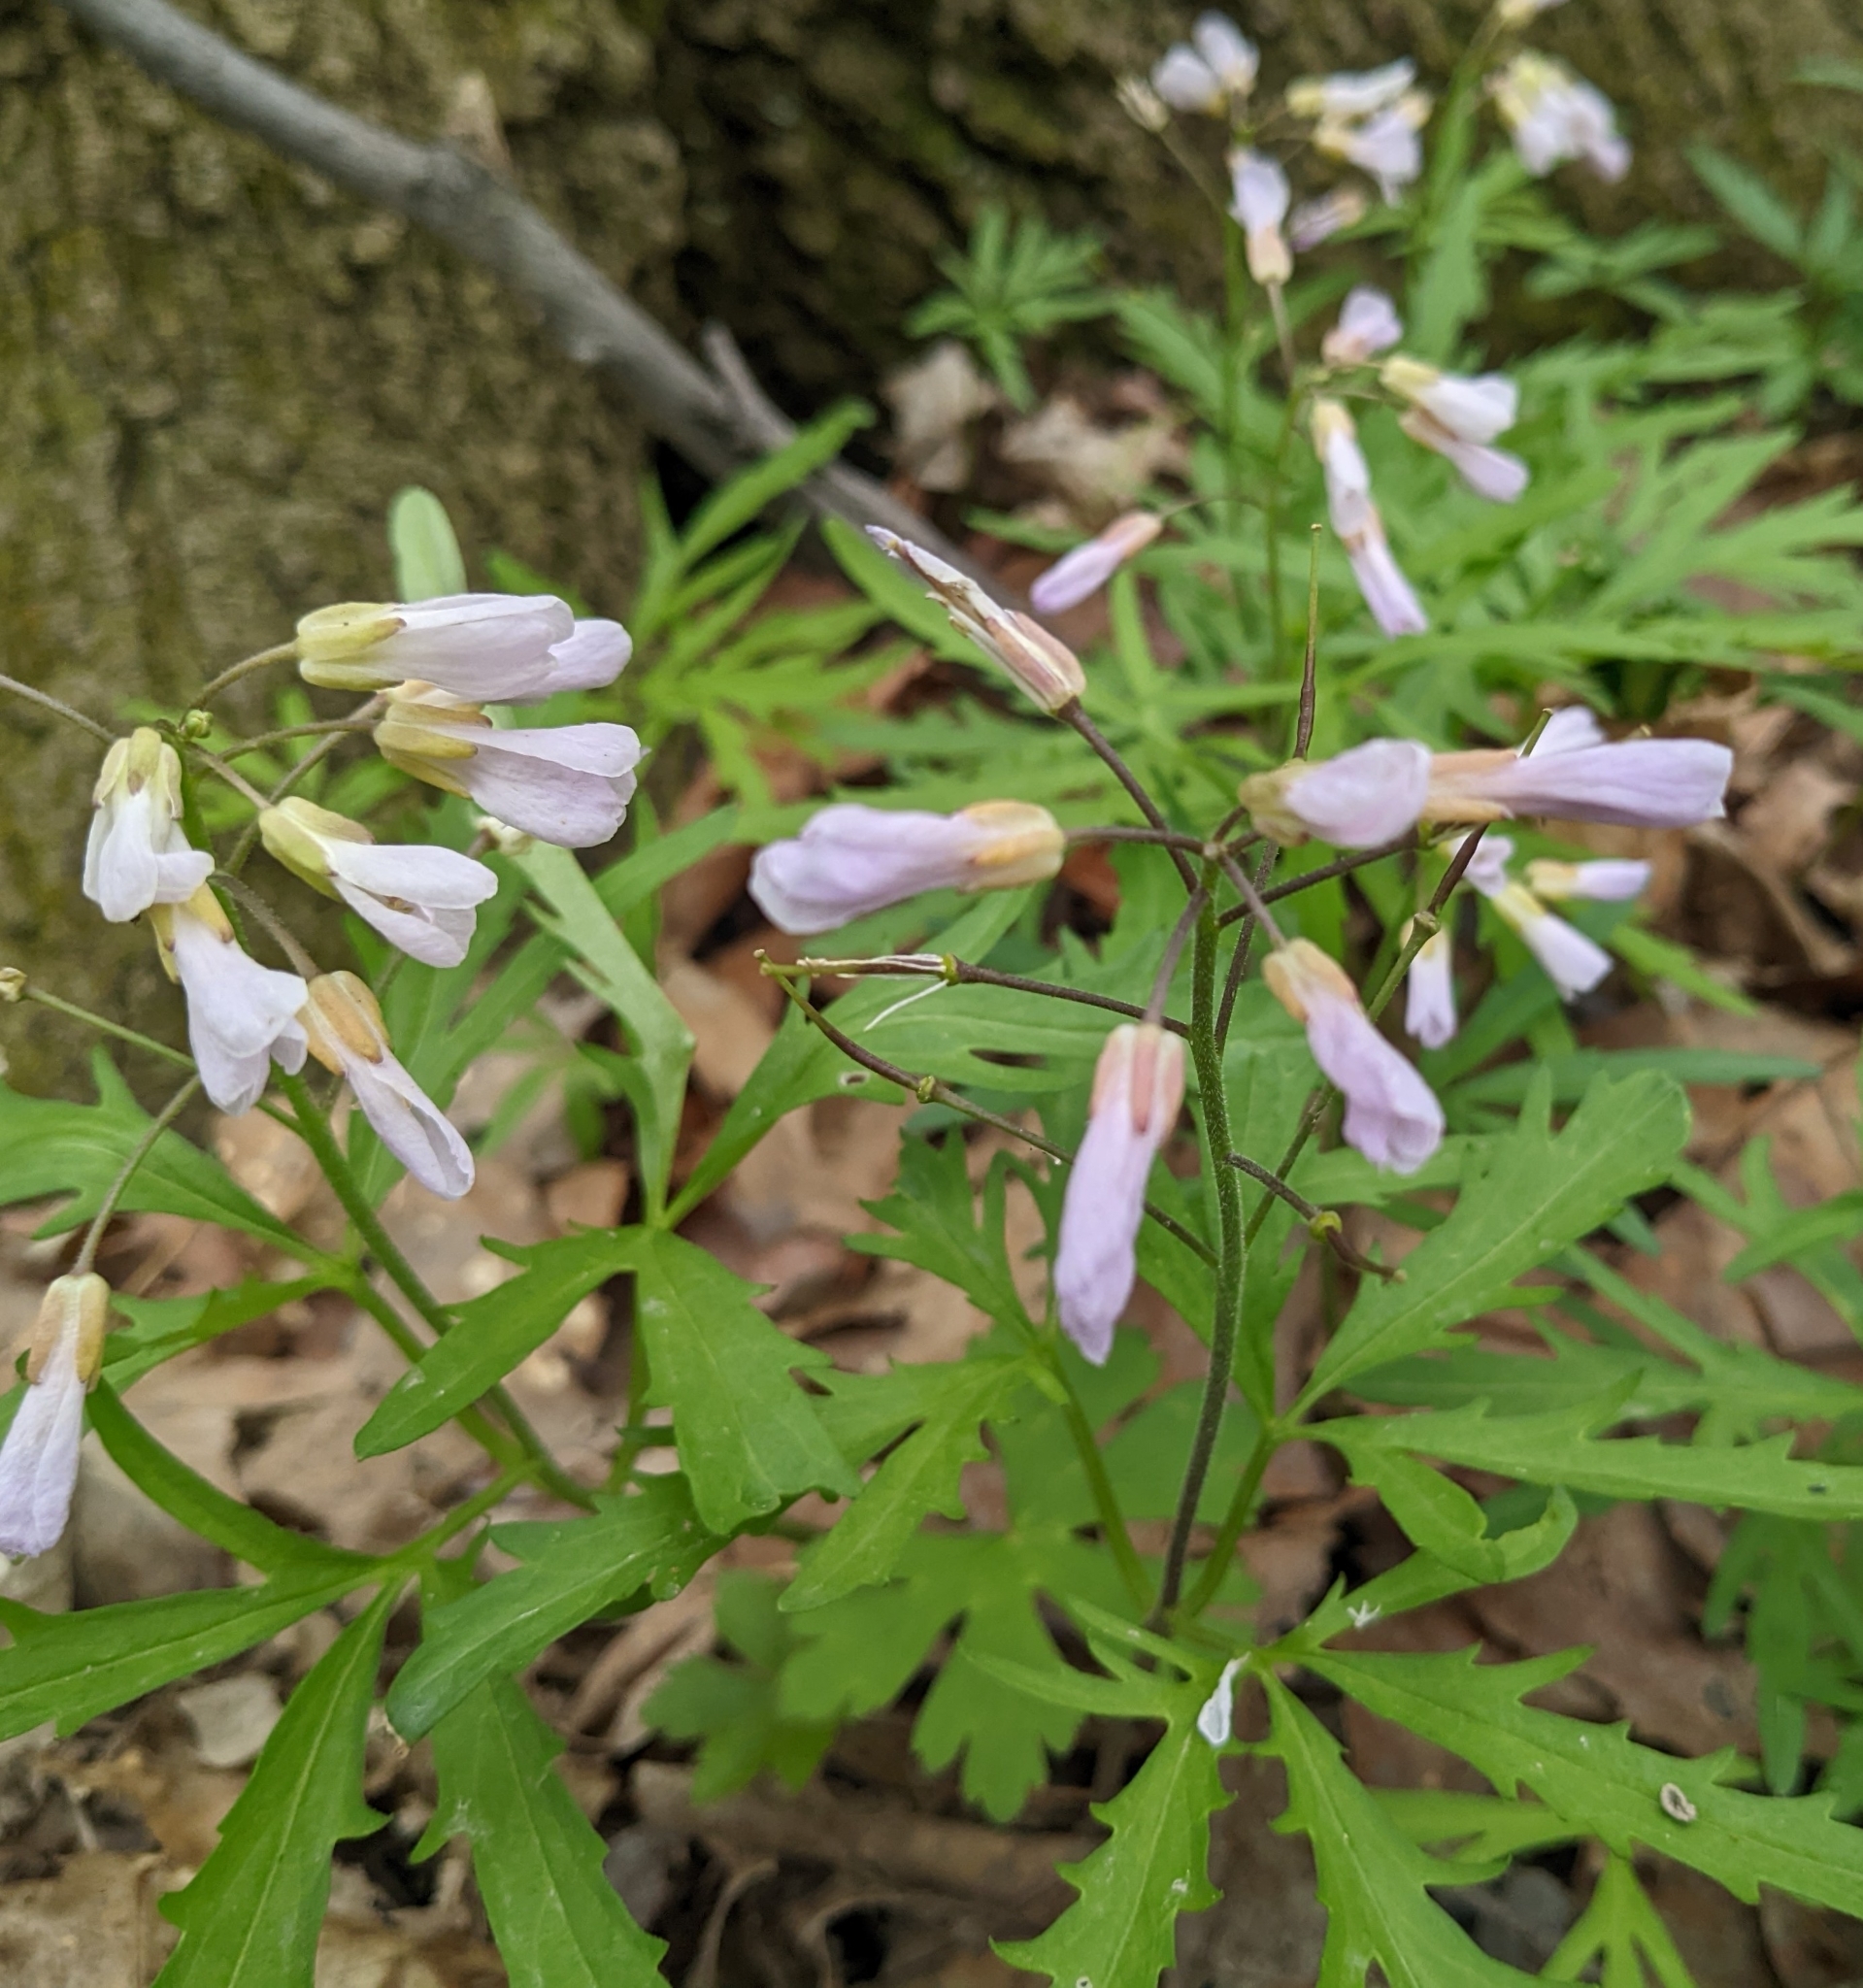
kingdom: Plantae
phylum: Tracheophyta
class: Magnoliopsida
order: Brassicales
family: Brassicaceae
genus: Cardamine
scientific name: Cardamine concatenata
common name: Cut-leaf toothcup
